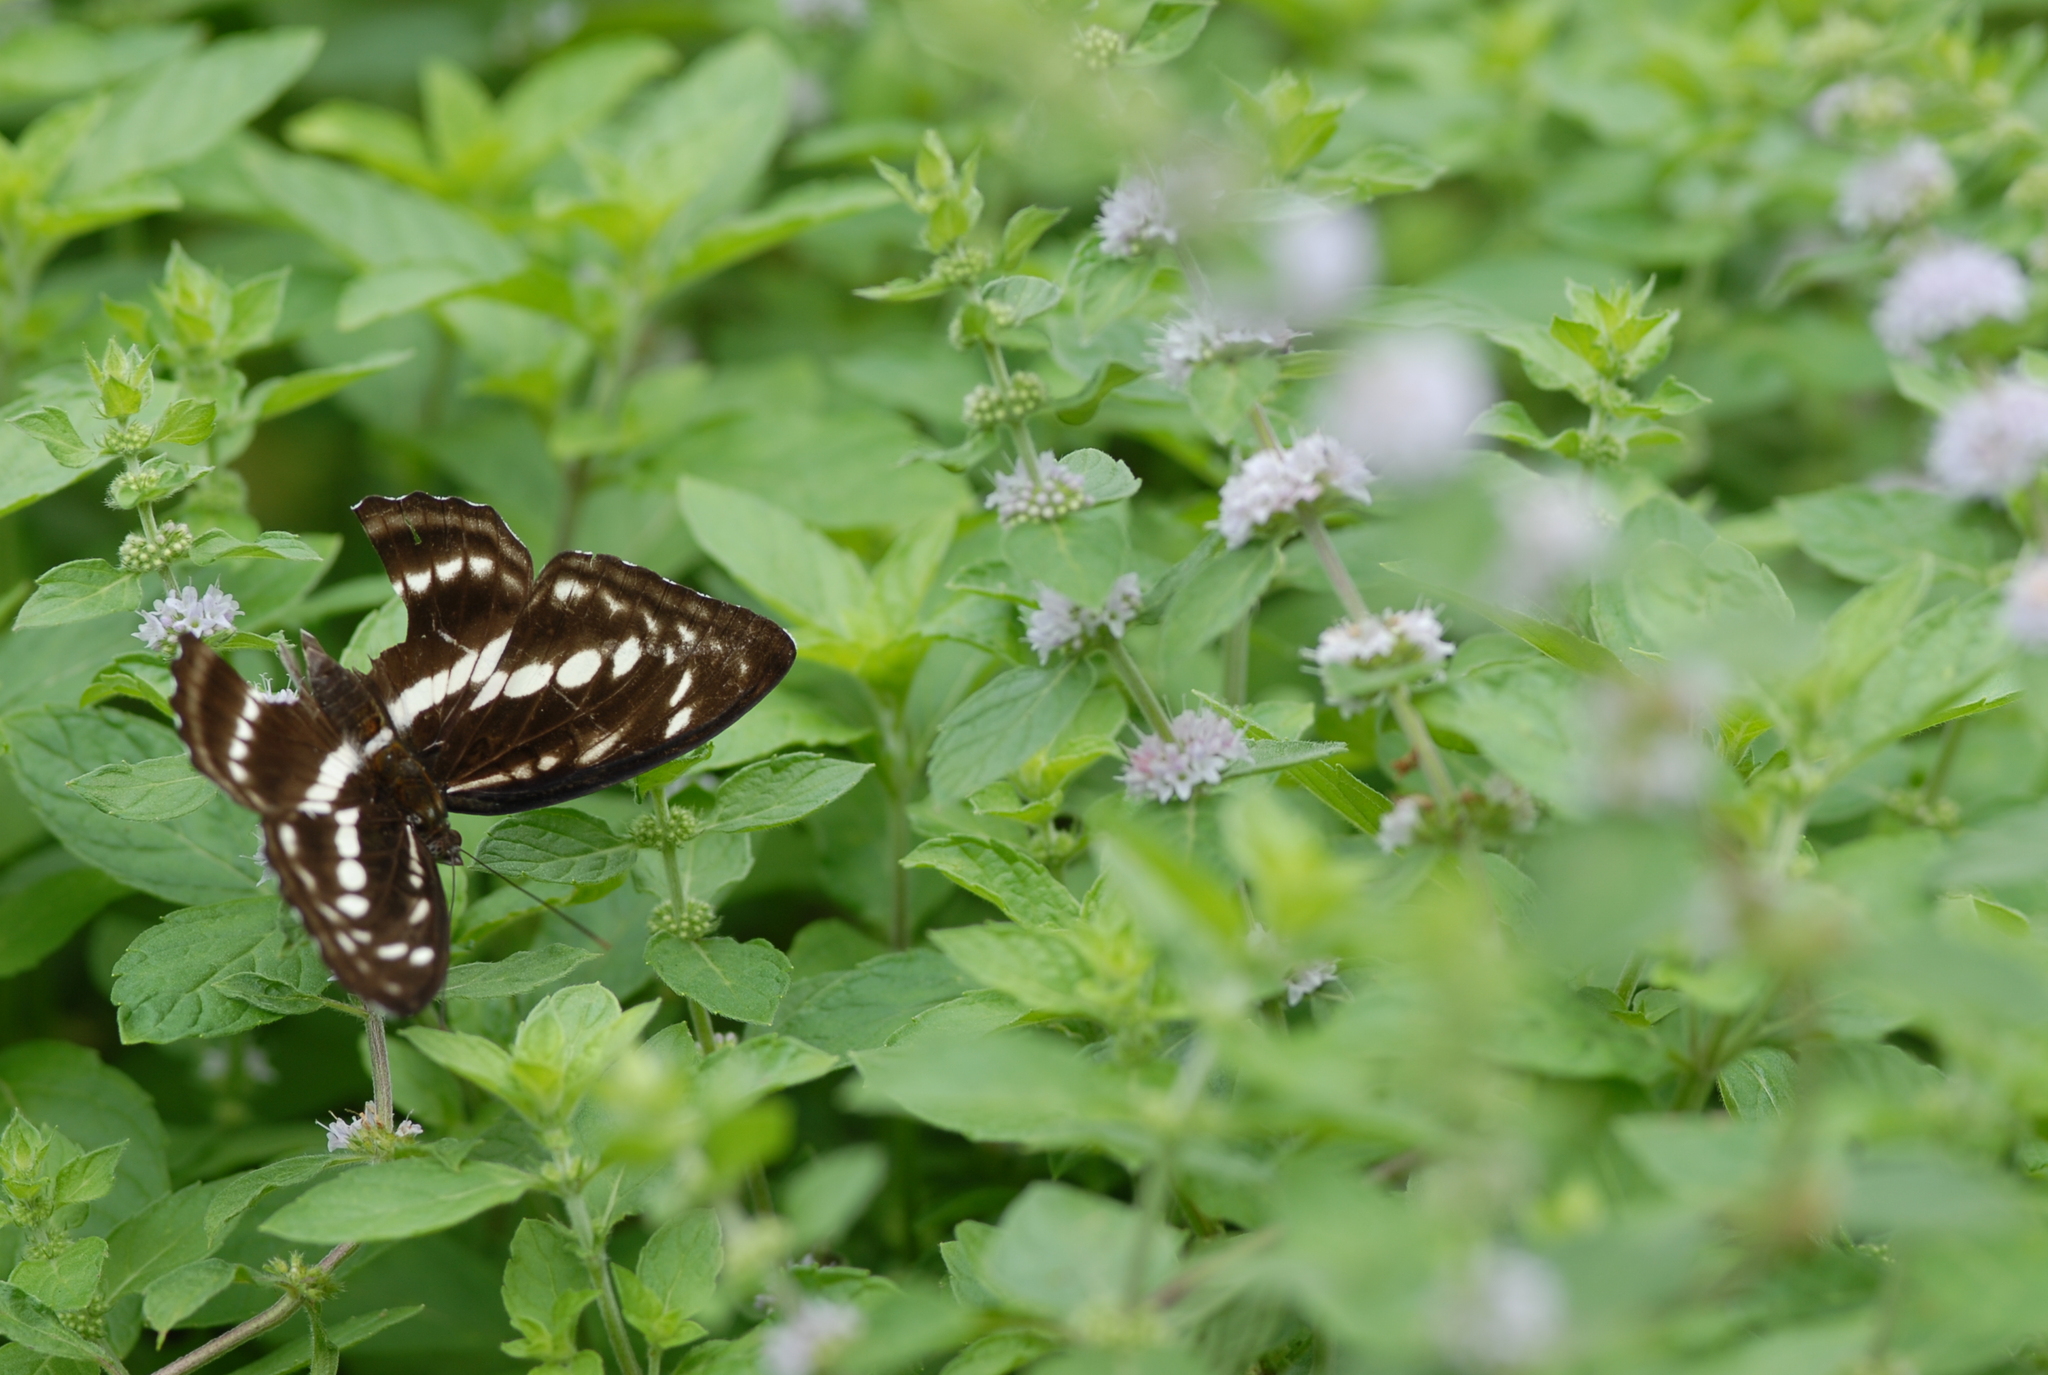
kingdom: Animalia
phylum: Arthropoda
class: Insecta
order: Lepidoptera
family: Nymphalidae
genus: Parathyma
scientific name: Parathyma selenophora
